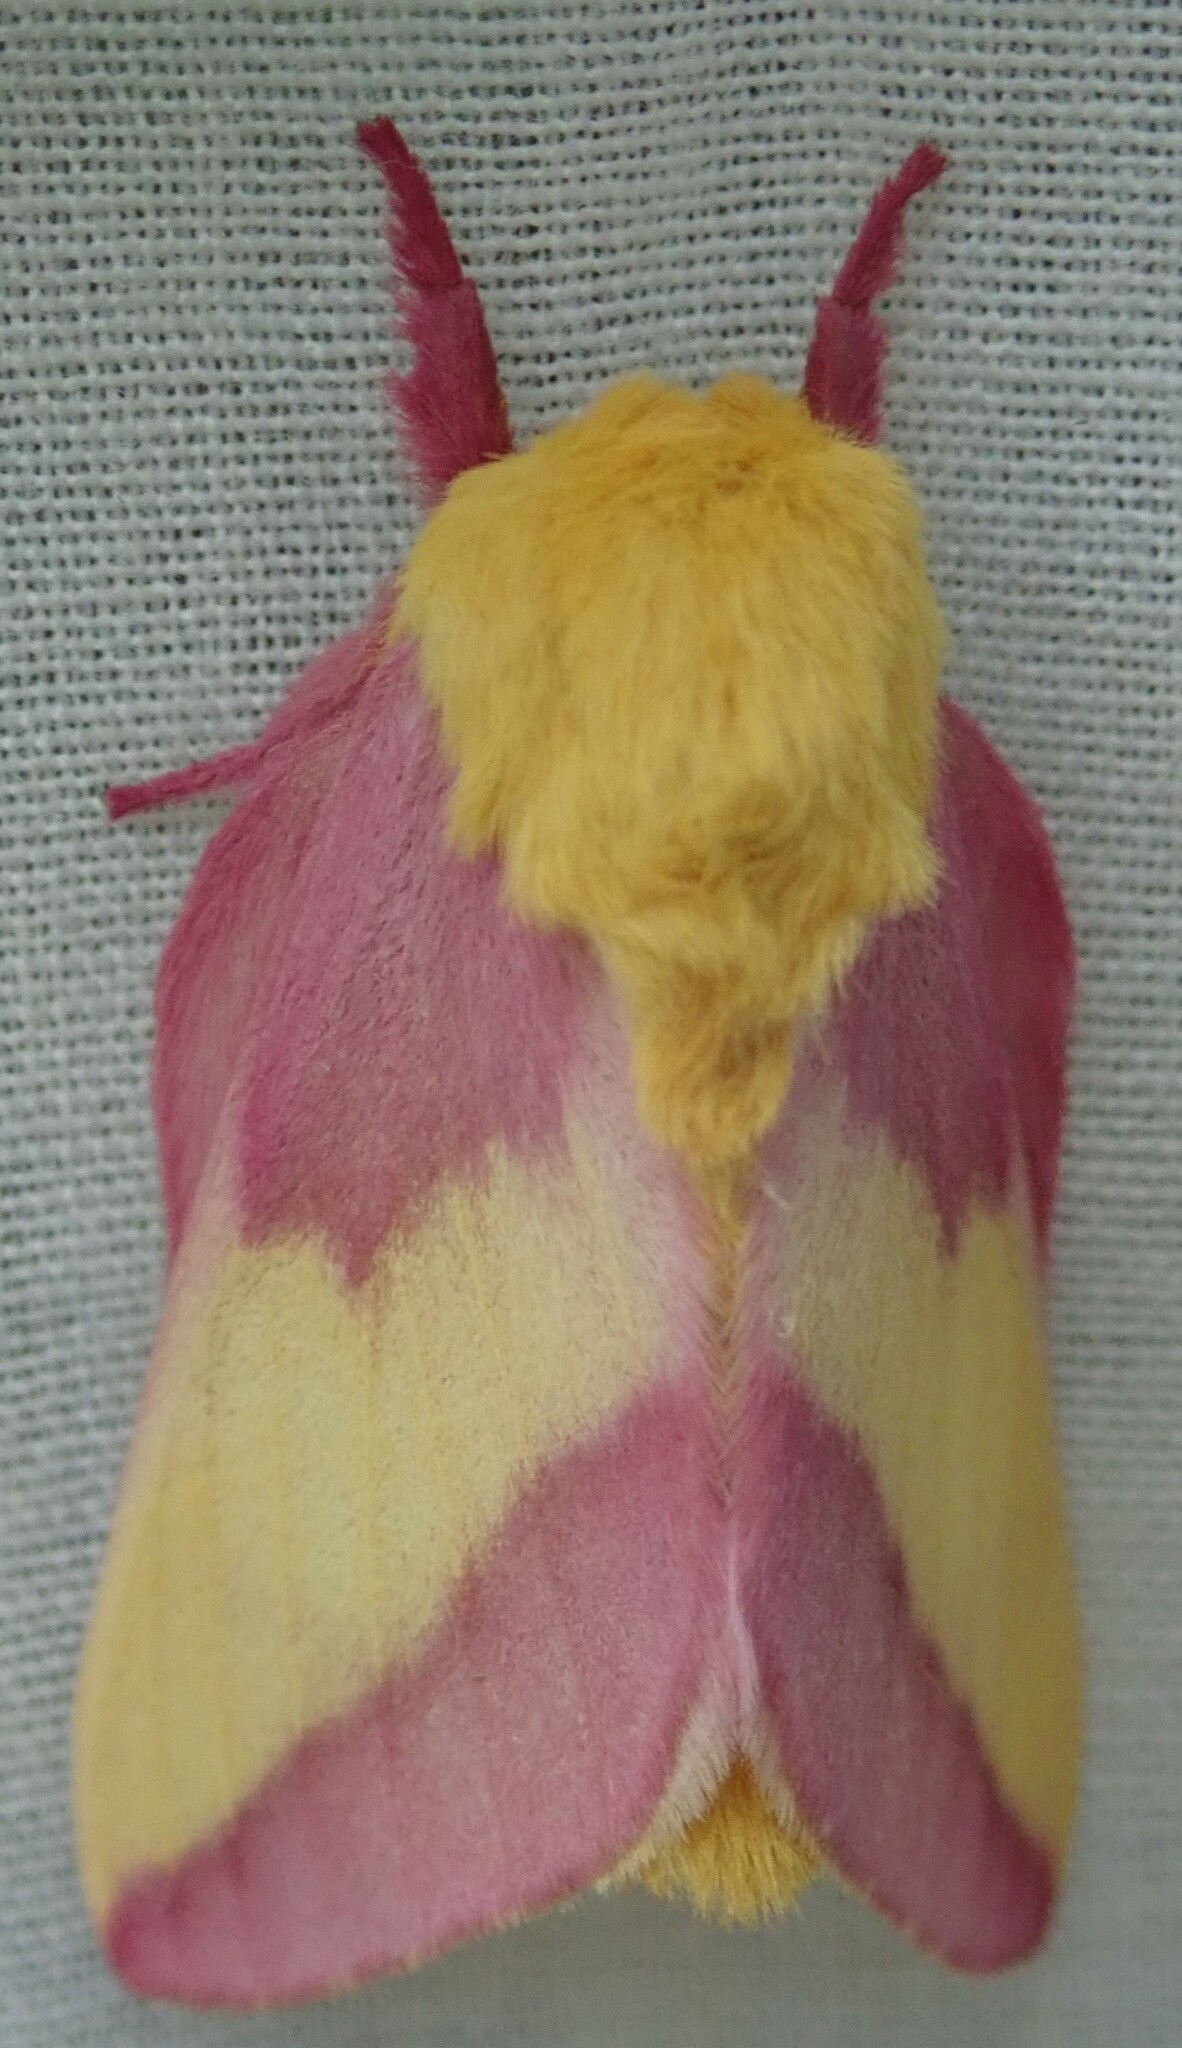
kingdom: Animalia
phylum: Arthropoda
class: Insecta
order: Lepidoptera
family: Saturniidae
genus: Dryocampa
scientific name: Dryocampa rubicunda
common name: Rosy maple moth
